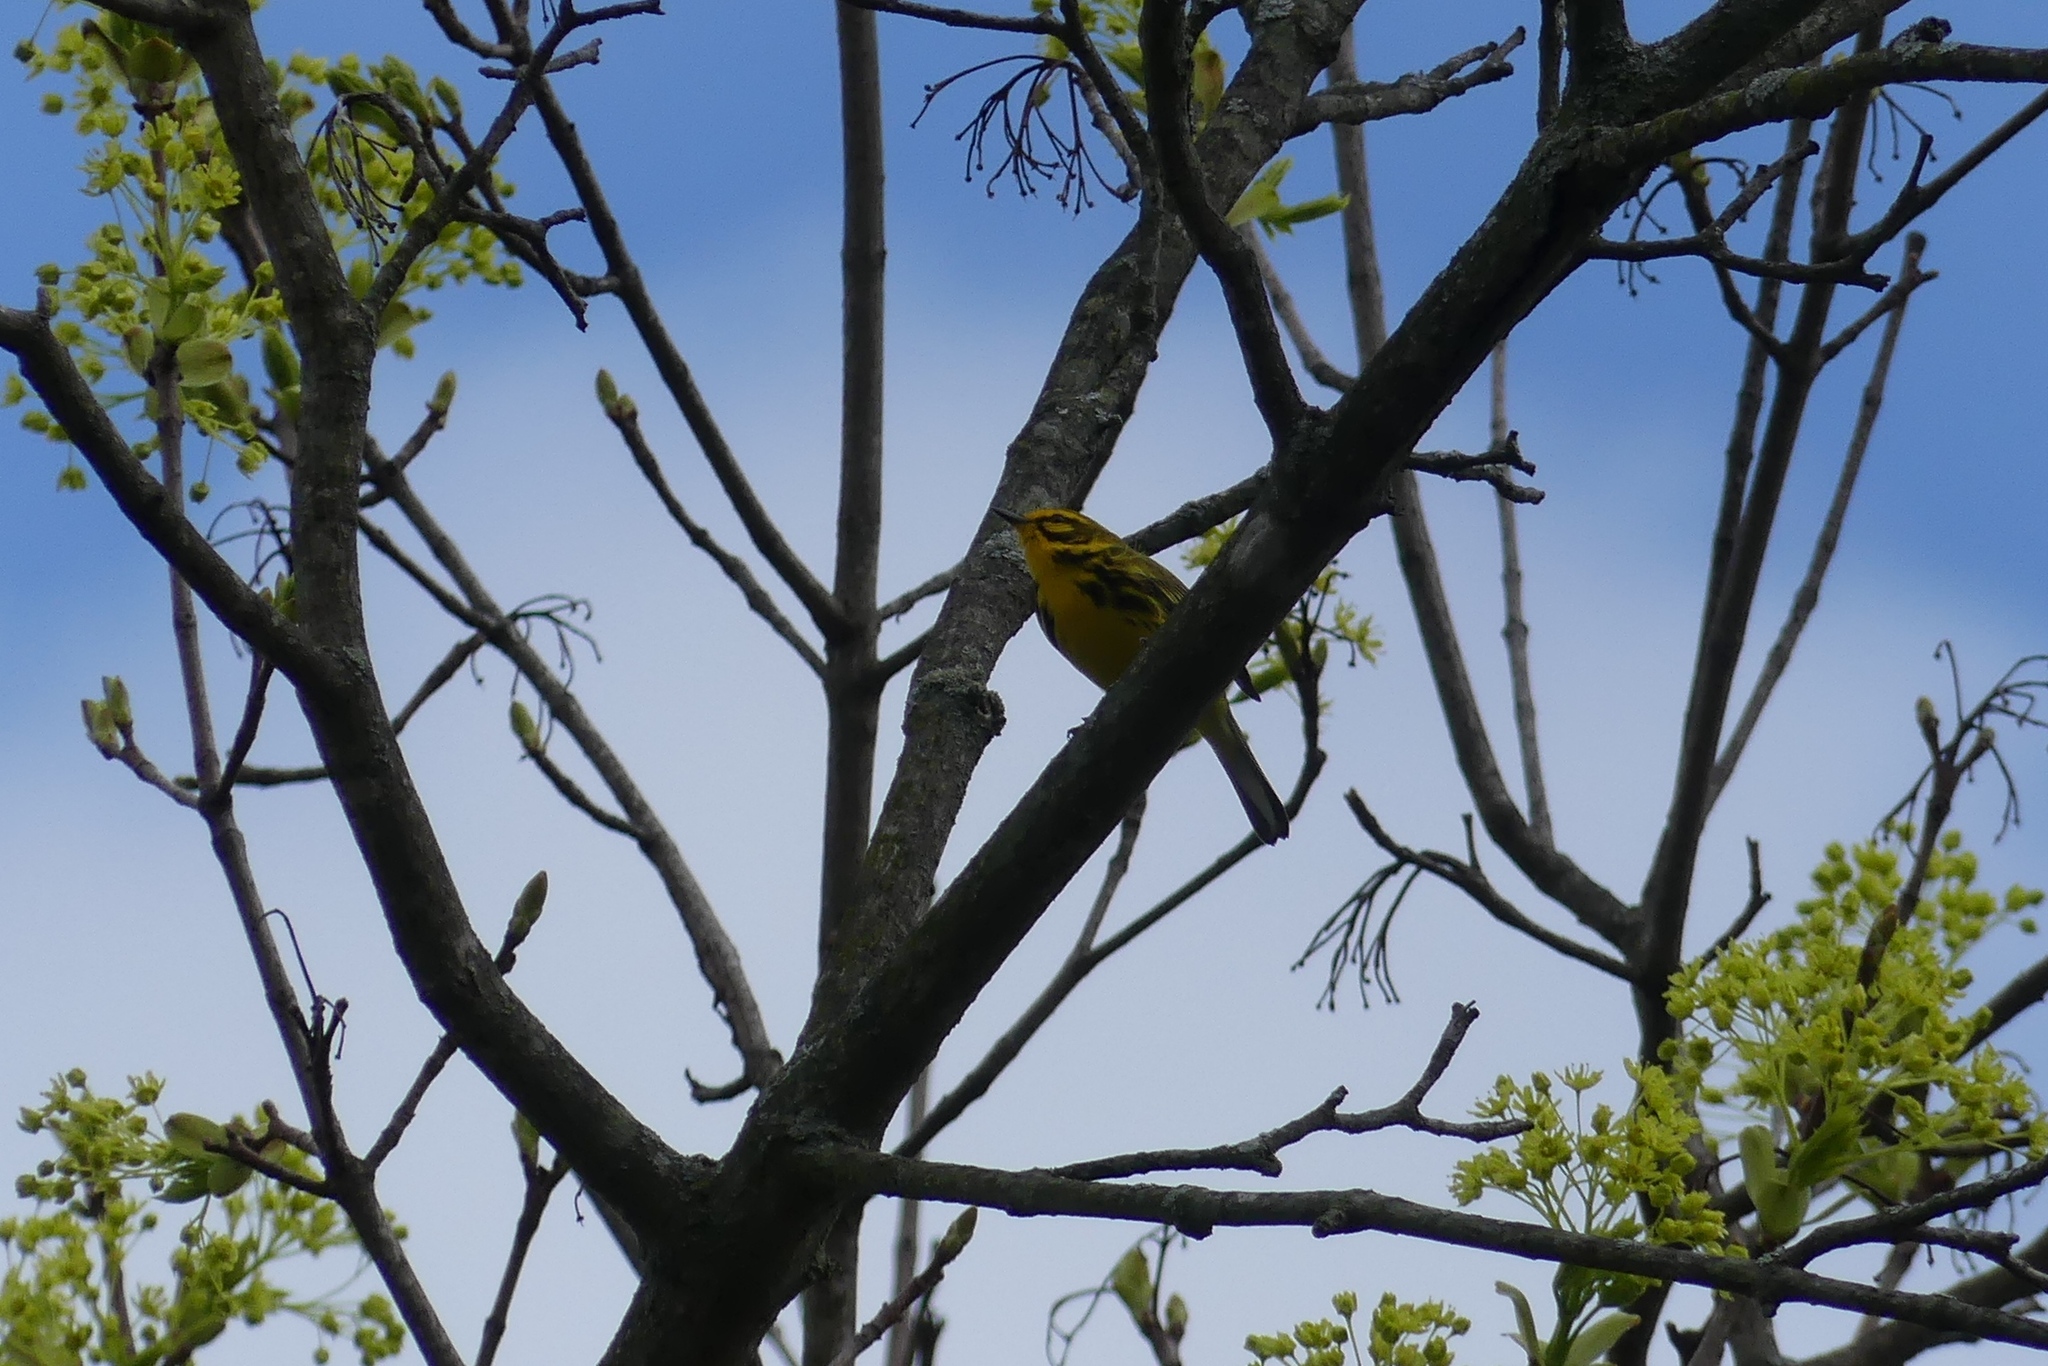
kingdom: Animalia
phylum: Chordata
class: Aves
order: Passeriformes
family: Parulidae
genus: Setophaga
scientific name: Setophaga discolor
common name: Prairie warbler
